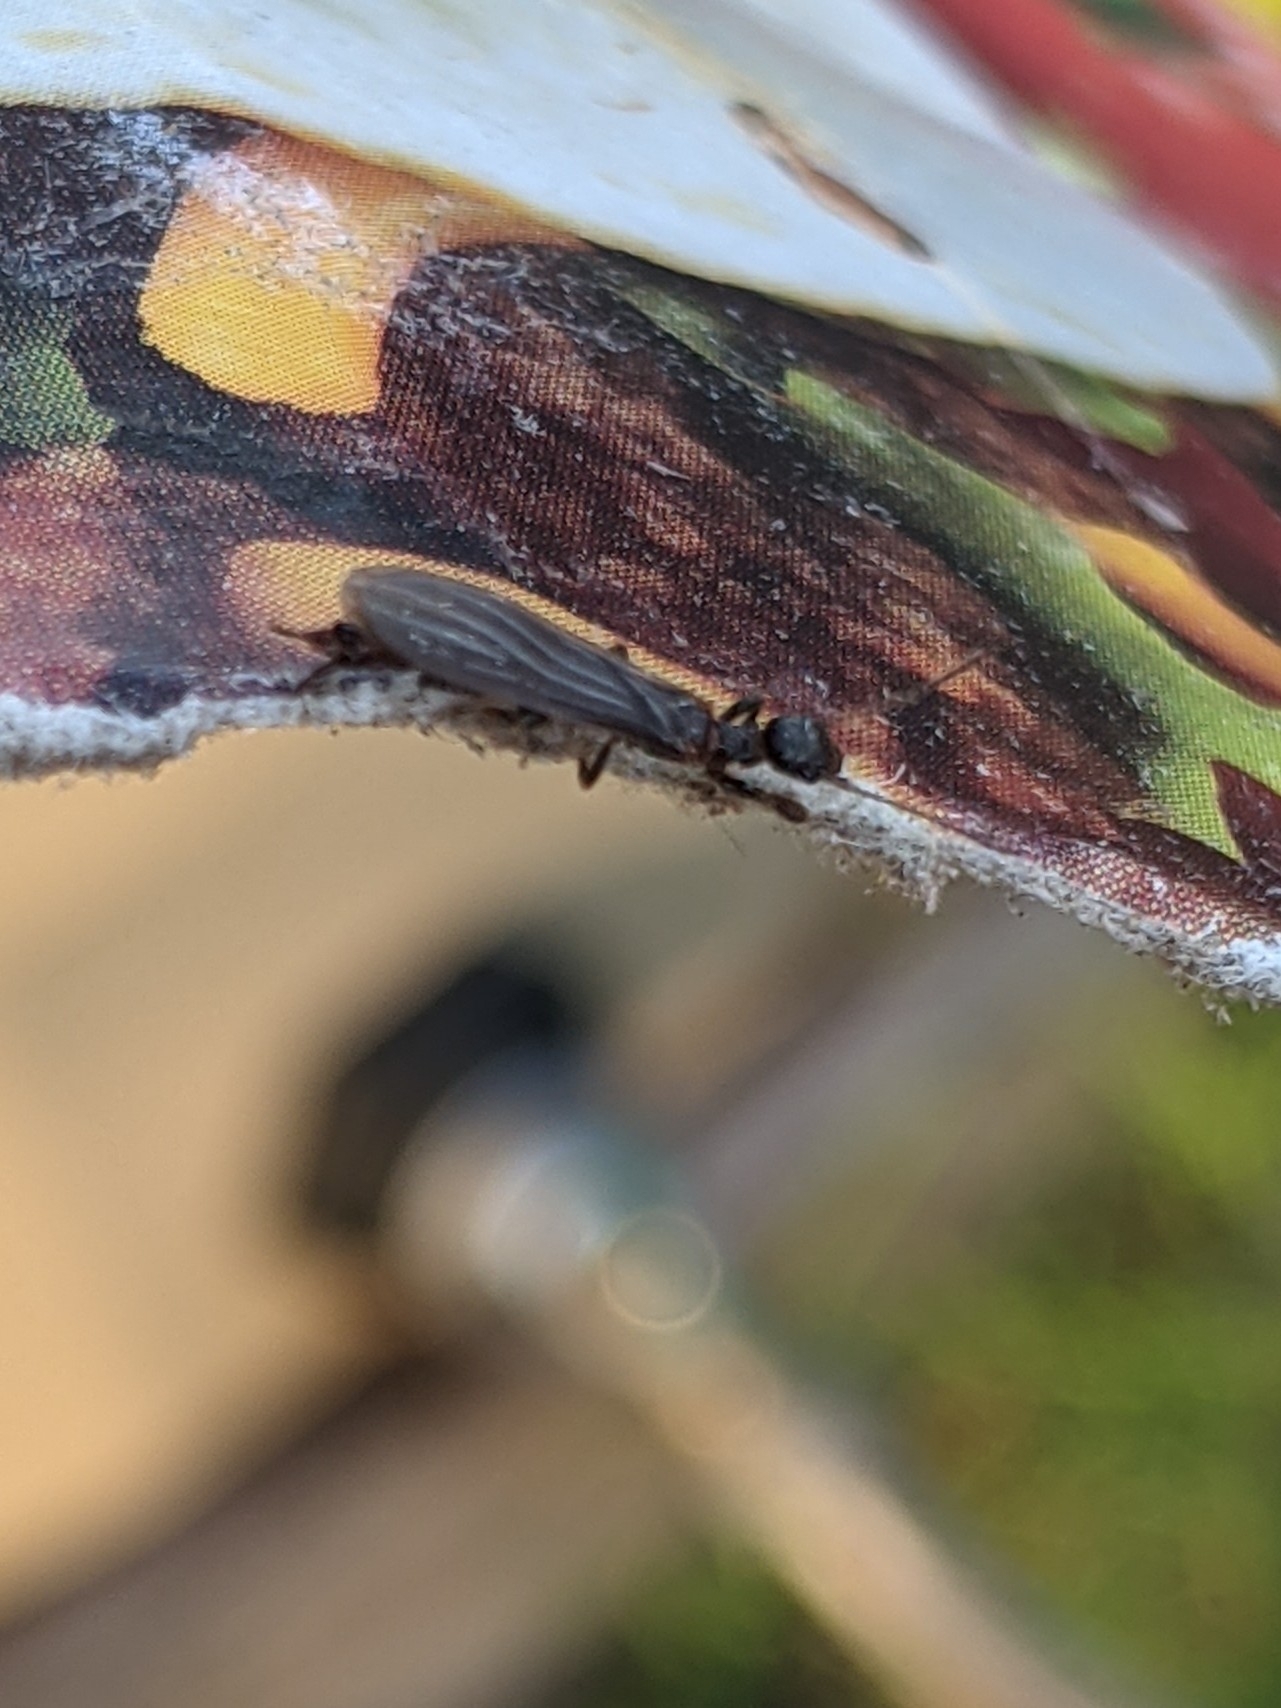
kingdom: Animalia
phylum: Arthropoda
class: Insecta
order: Embioptera
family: Oligotomidae
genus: Oligotoma
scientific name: Oligotoma nigra
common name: Black webspinner
